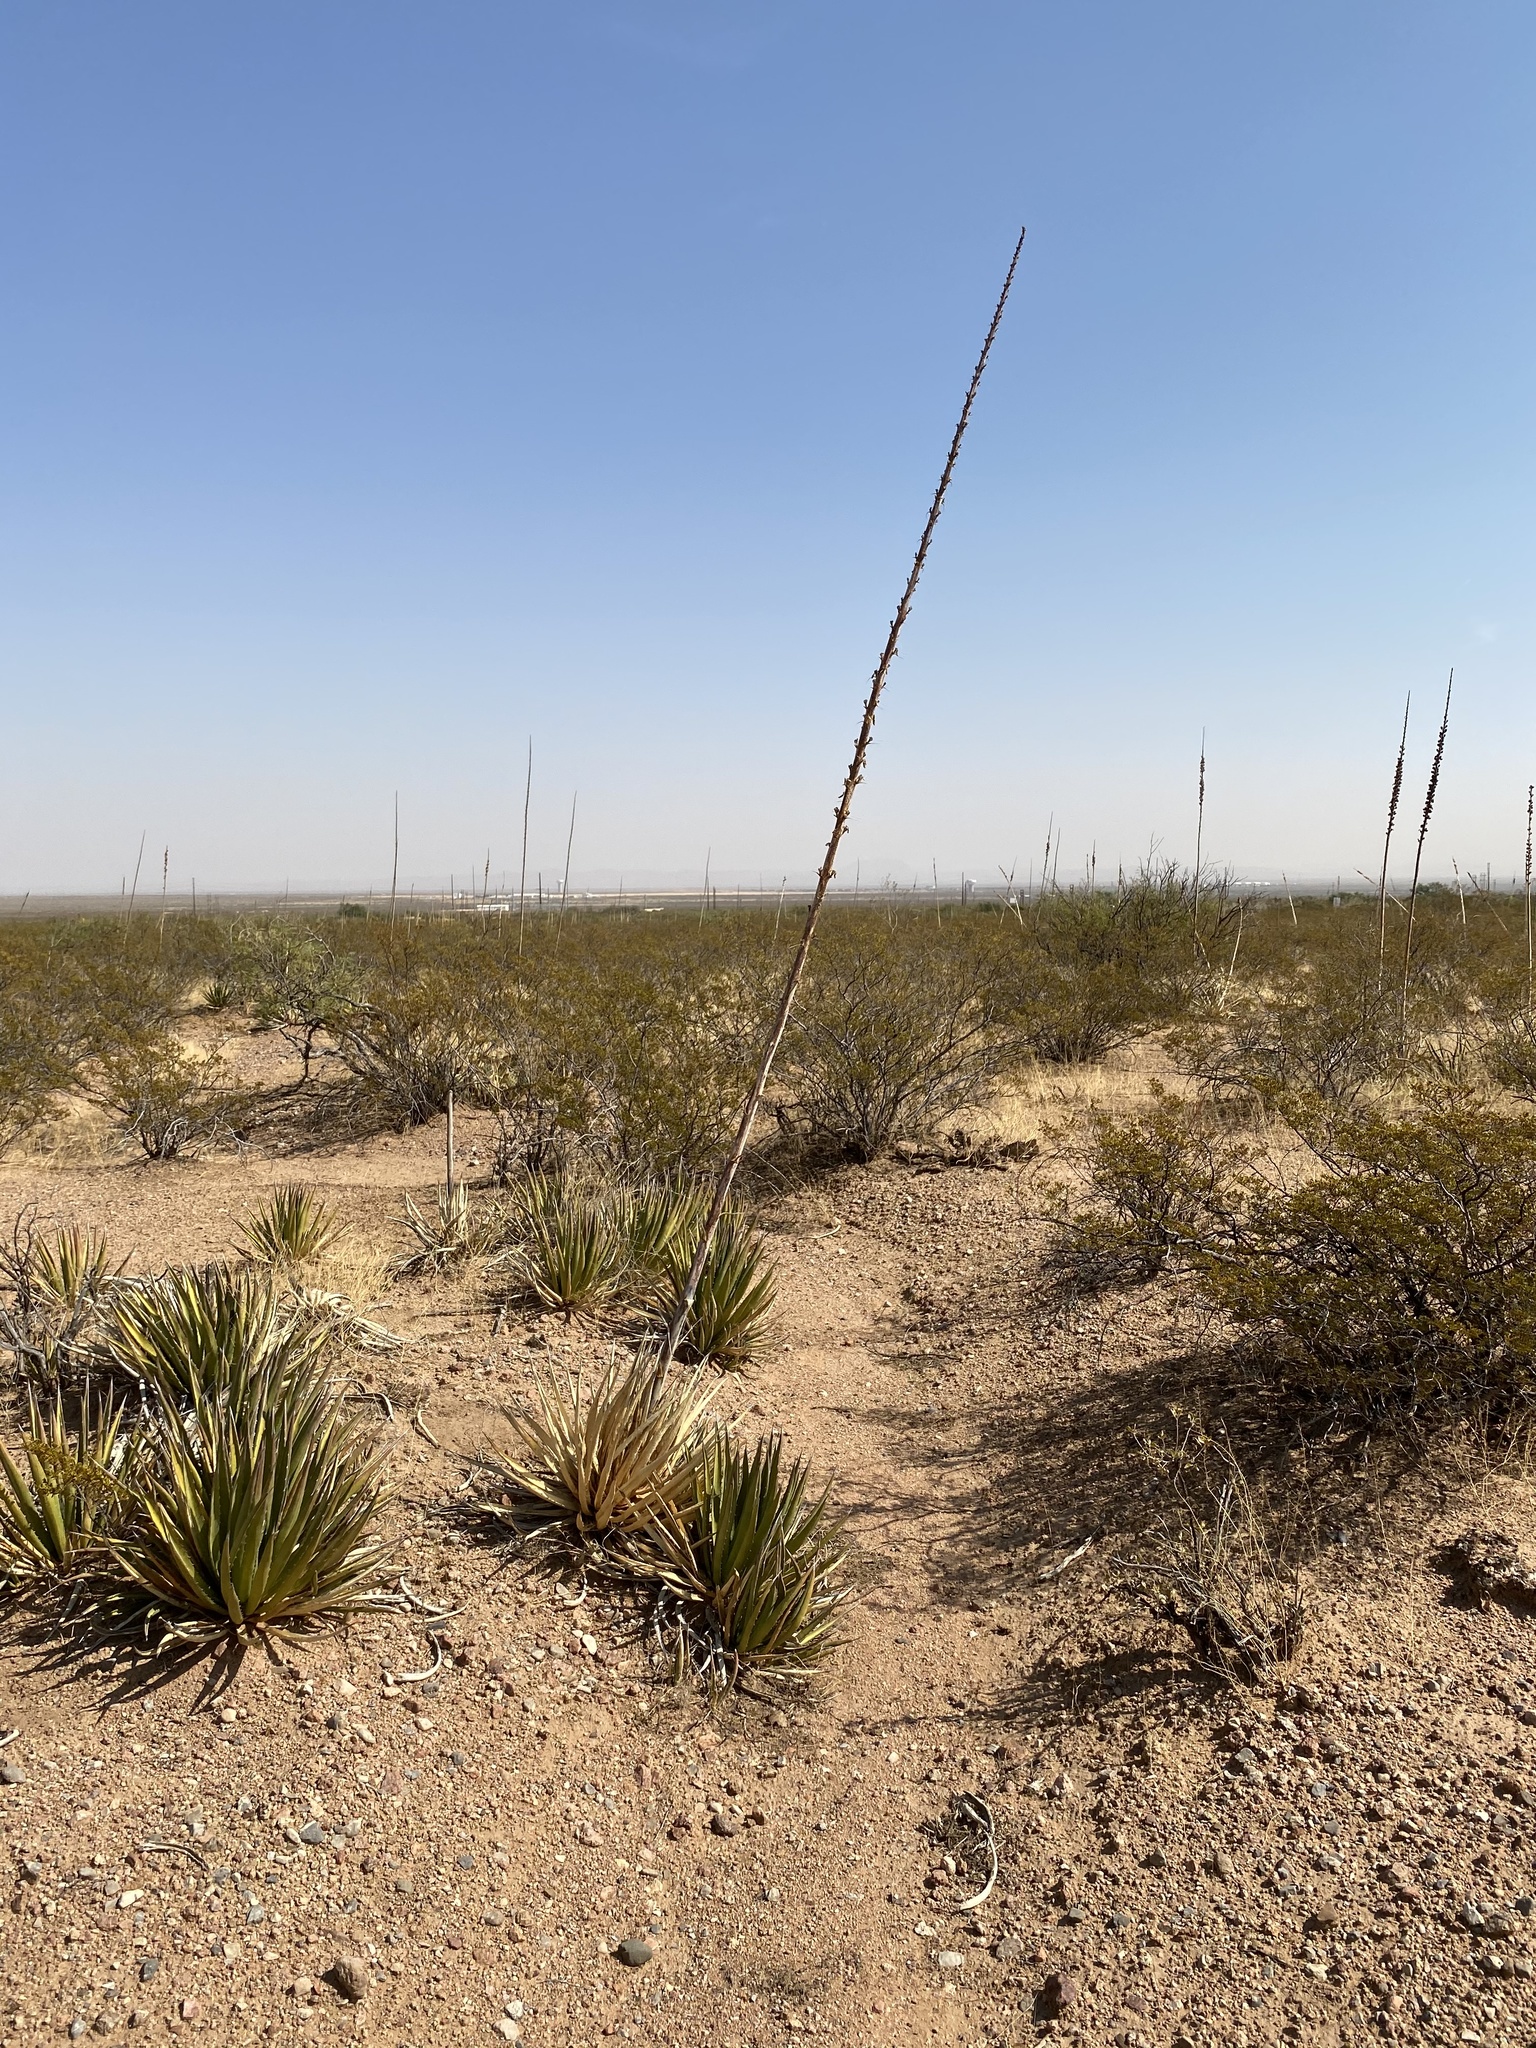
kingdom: Plantae
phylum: Tracheophyta
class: Liliopsida
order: Asparagales
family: Asparagaceae
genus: Agave
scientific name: Agave lechuguilla
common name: Lecheguilla agave
